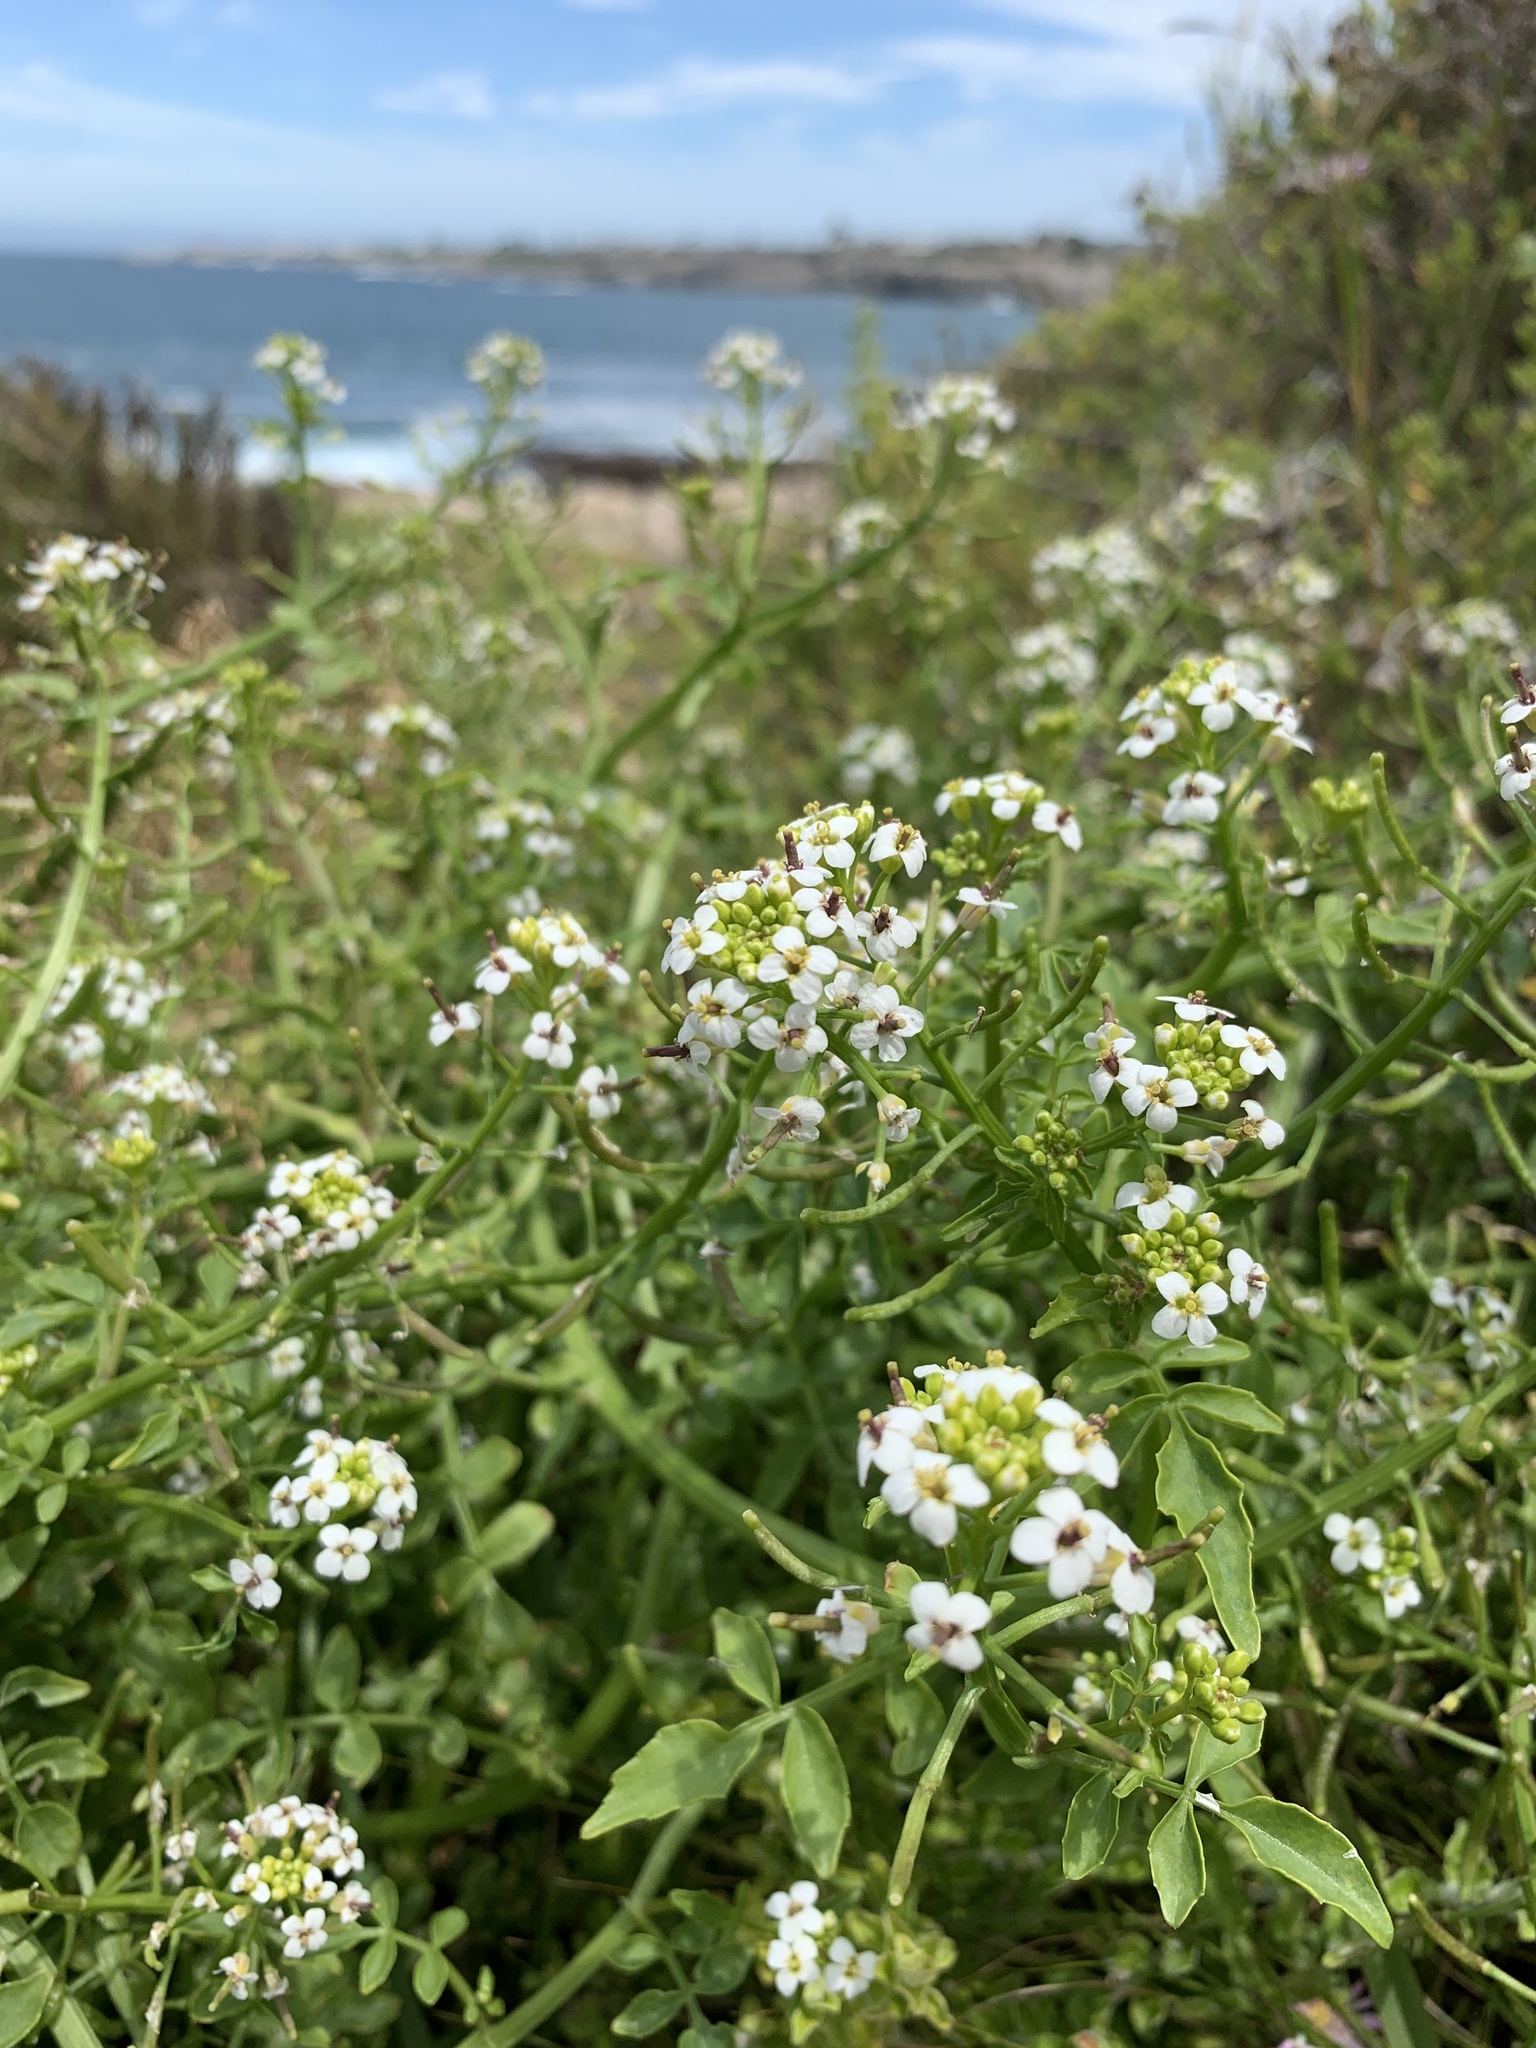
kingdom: Plantae
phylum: Tracheophyta
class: Magnoliopsida
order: Brassicales
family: Brassicaceae
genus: Nasturtium
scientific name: Nasturtium officinale
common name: Watercress
